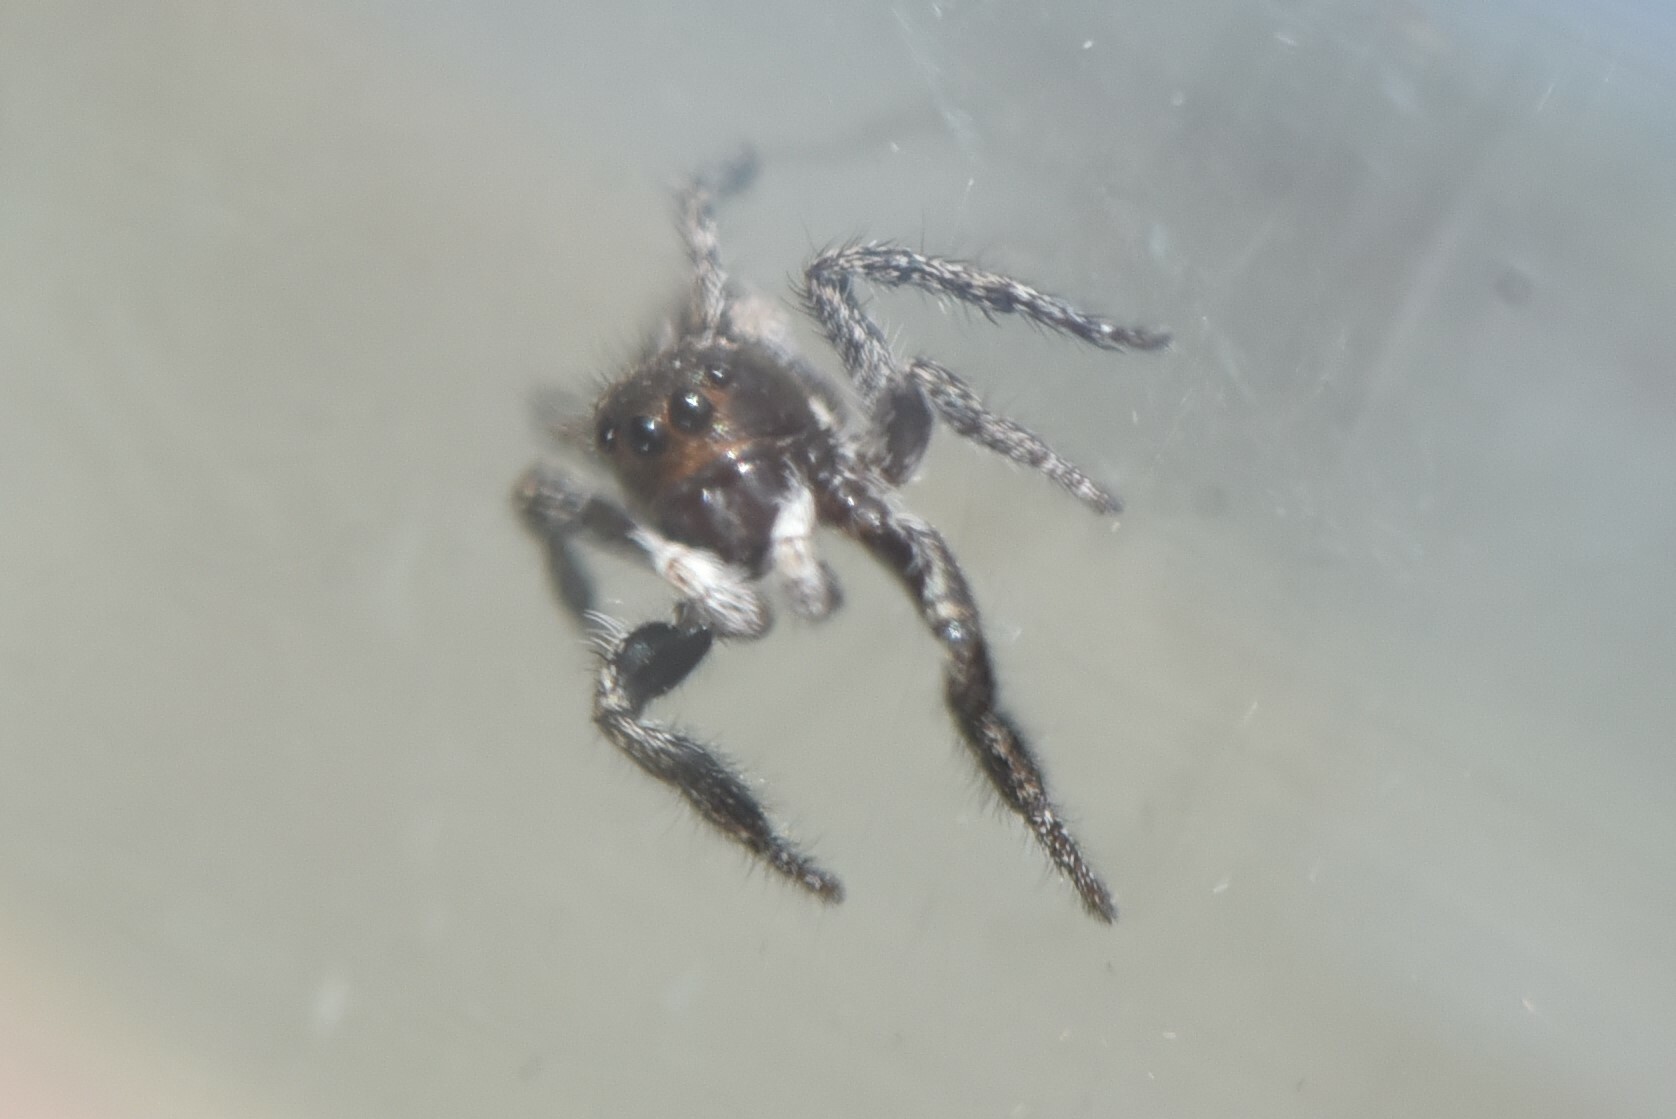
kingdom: Animalia
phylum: Arthropoda
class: Arachnida
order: Araneae
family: Salticidae
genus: Pellenes
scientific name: Pellenes canadensis
